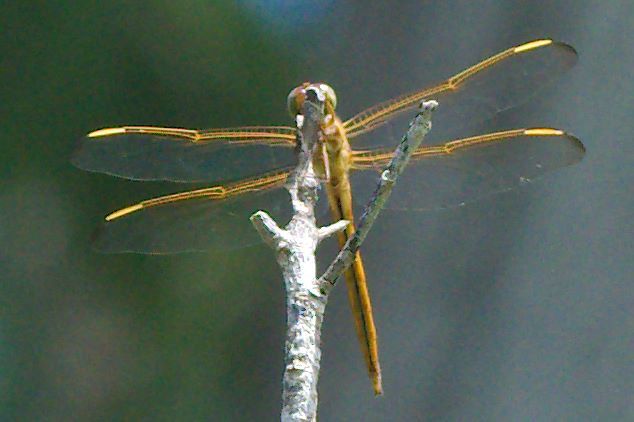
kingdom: Animalia
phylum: Arthropoda
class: Insecta
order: Odonata
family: Libellulidae
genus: Libellula
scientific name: Libellula needhami
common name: Needham's skimmer
